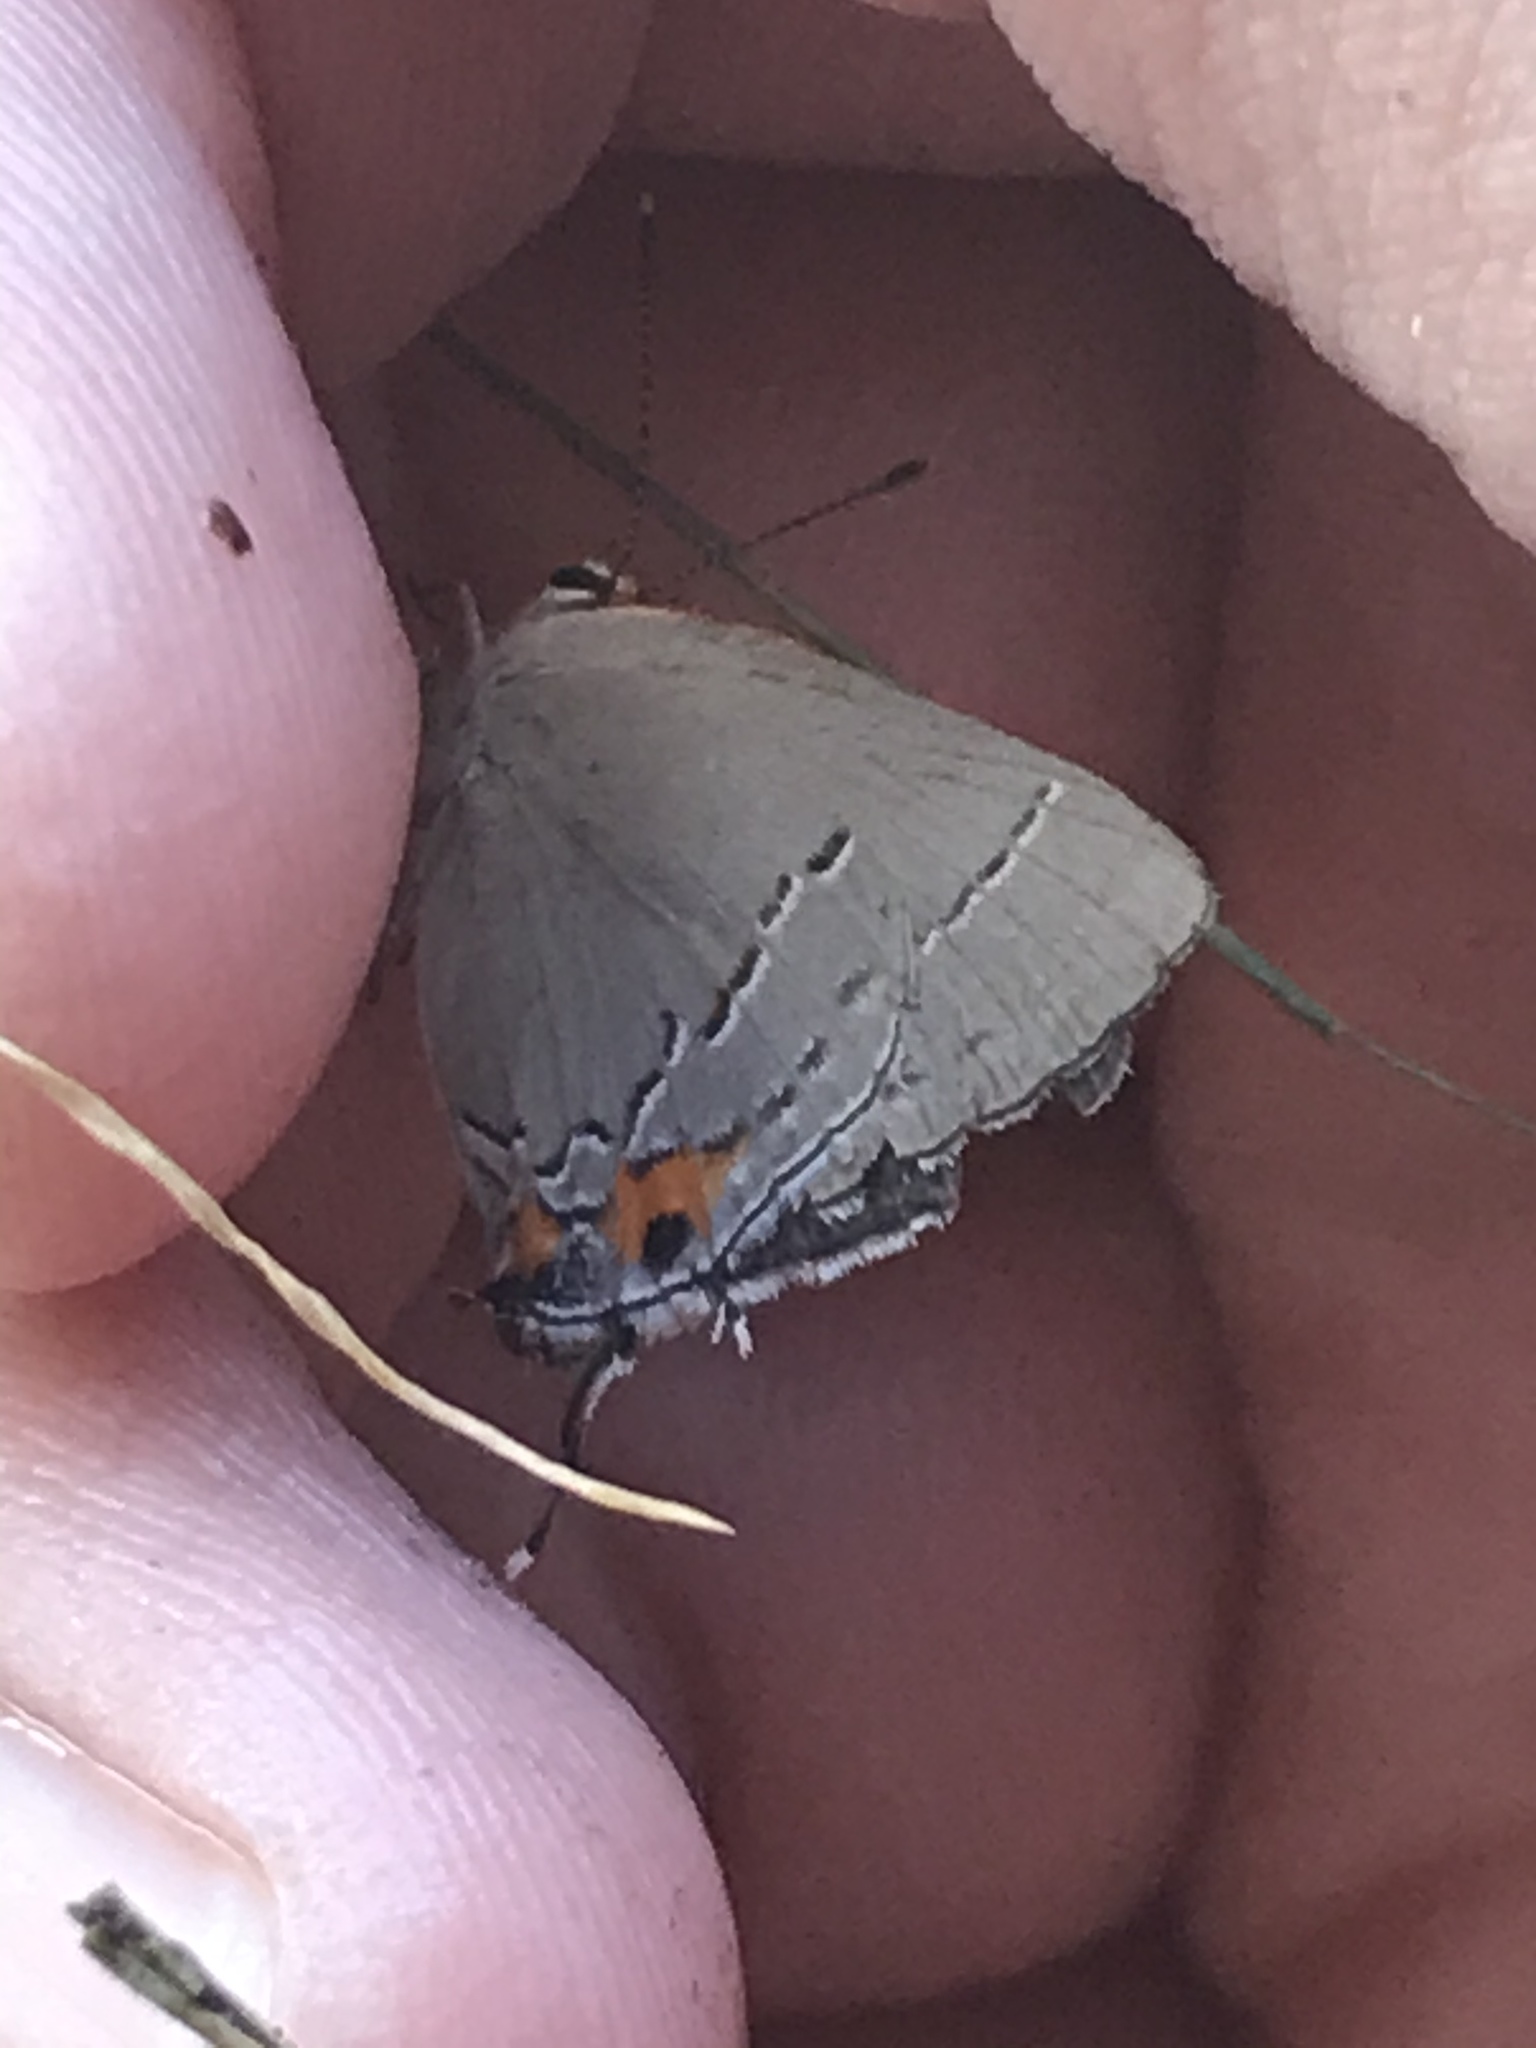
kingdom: Animalia
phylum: Arthropoda
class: Insecta
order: Lepidoptera
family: Lycaenidae
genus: Strymon
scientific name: Strymon melinus
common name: Gray hairstreak
